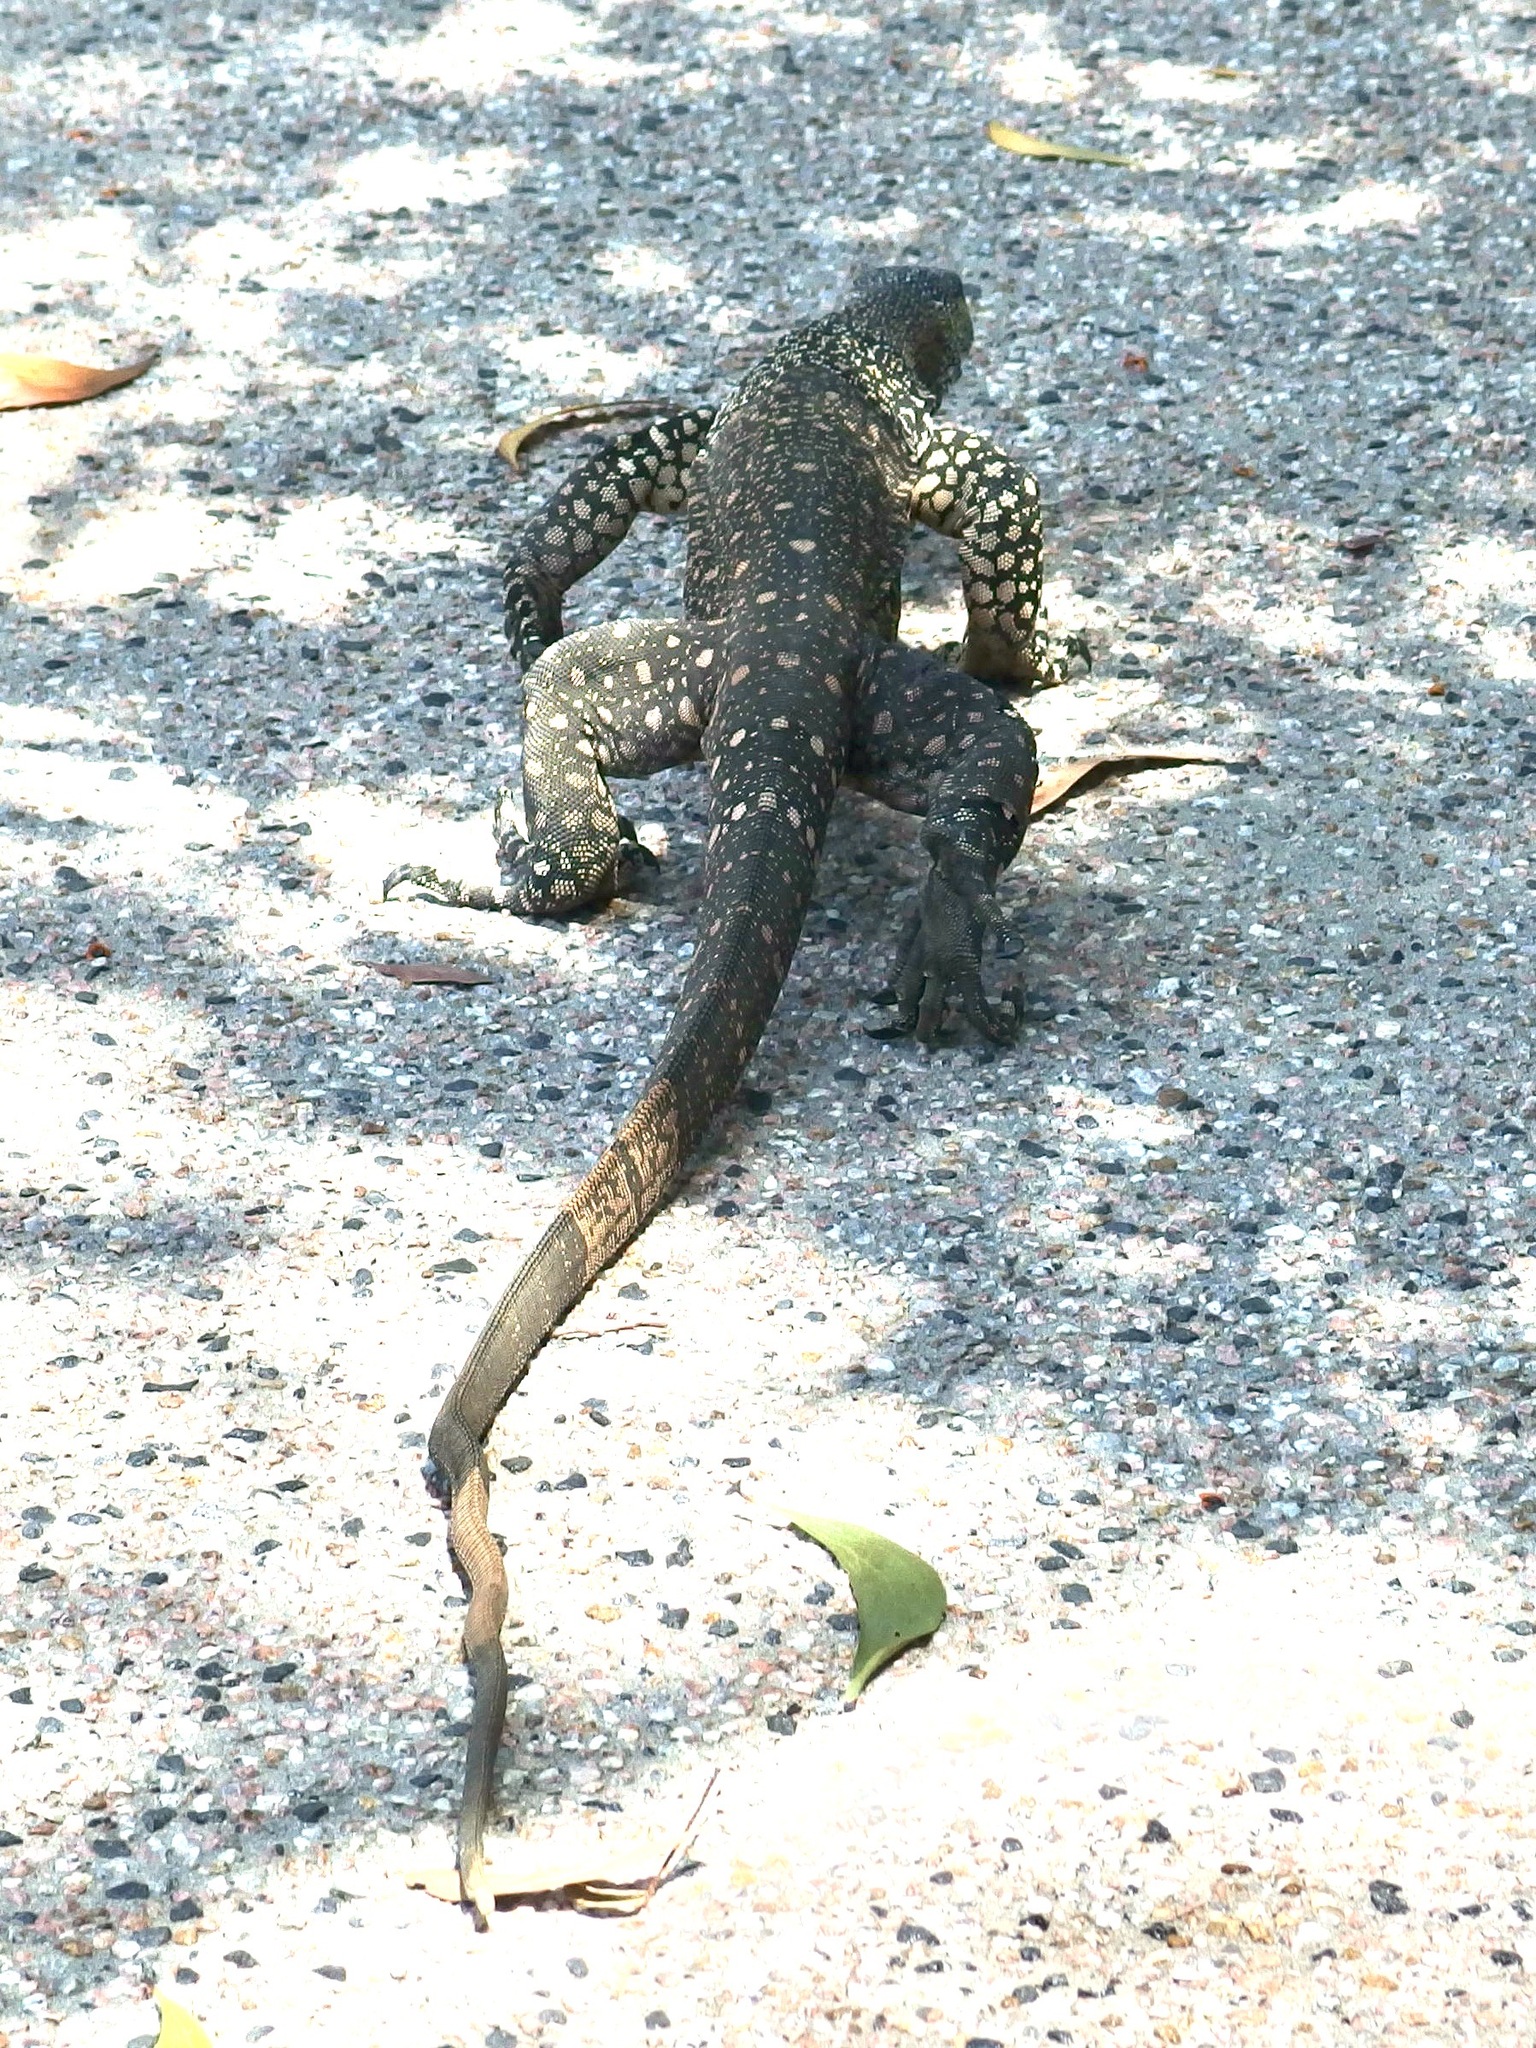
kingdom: Animalia
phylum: Chordata
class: Squamata
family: Varanidae
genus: Varanus
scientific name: Varanus varius
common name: Lace monitor
